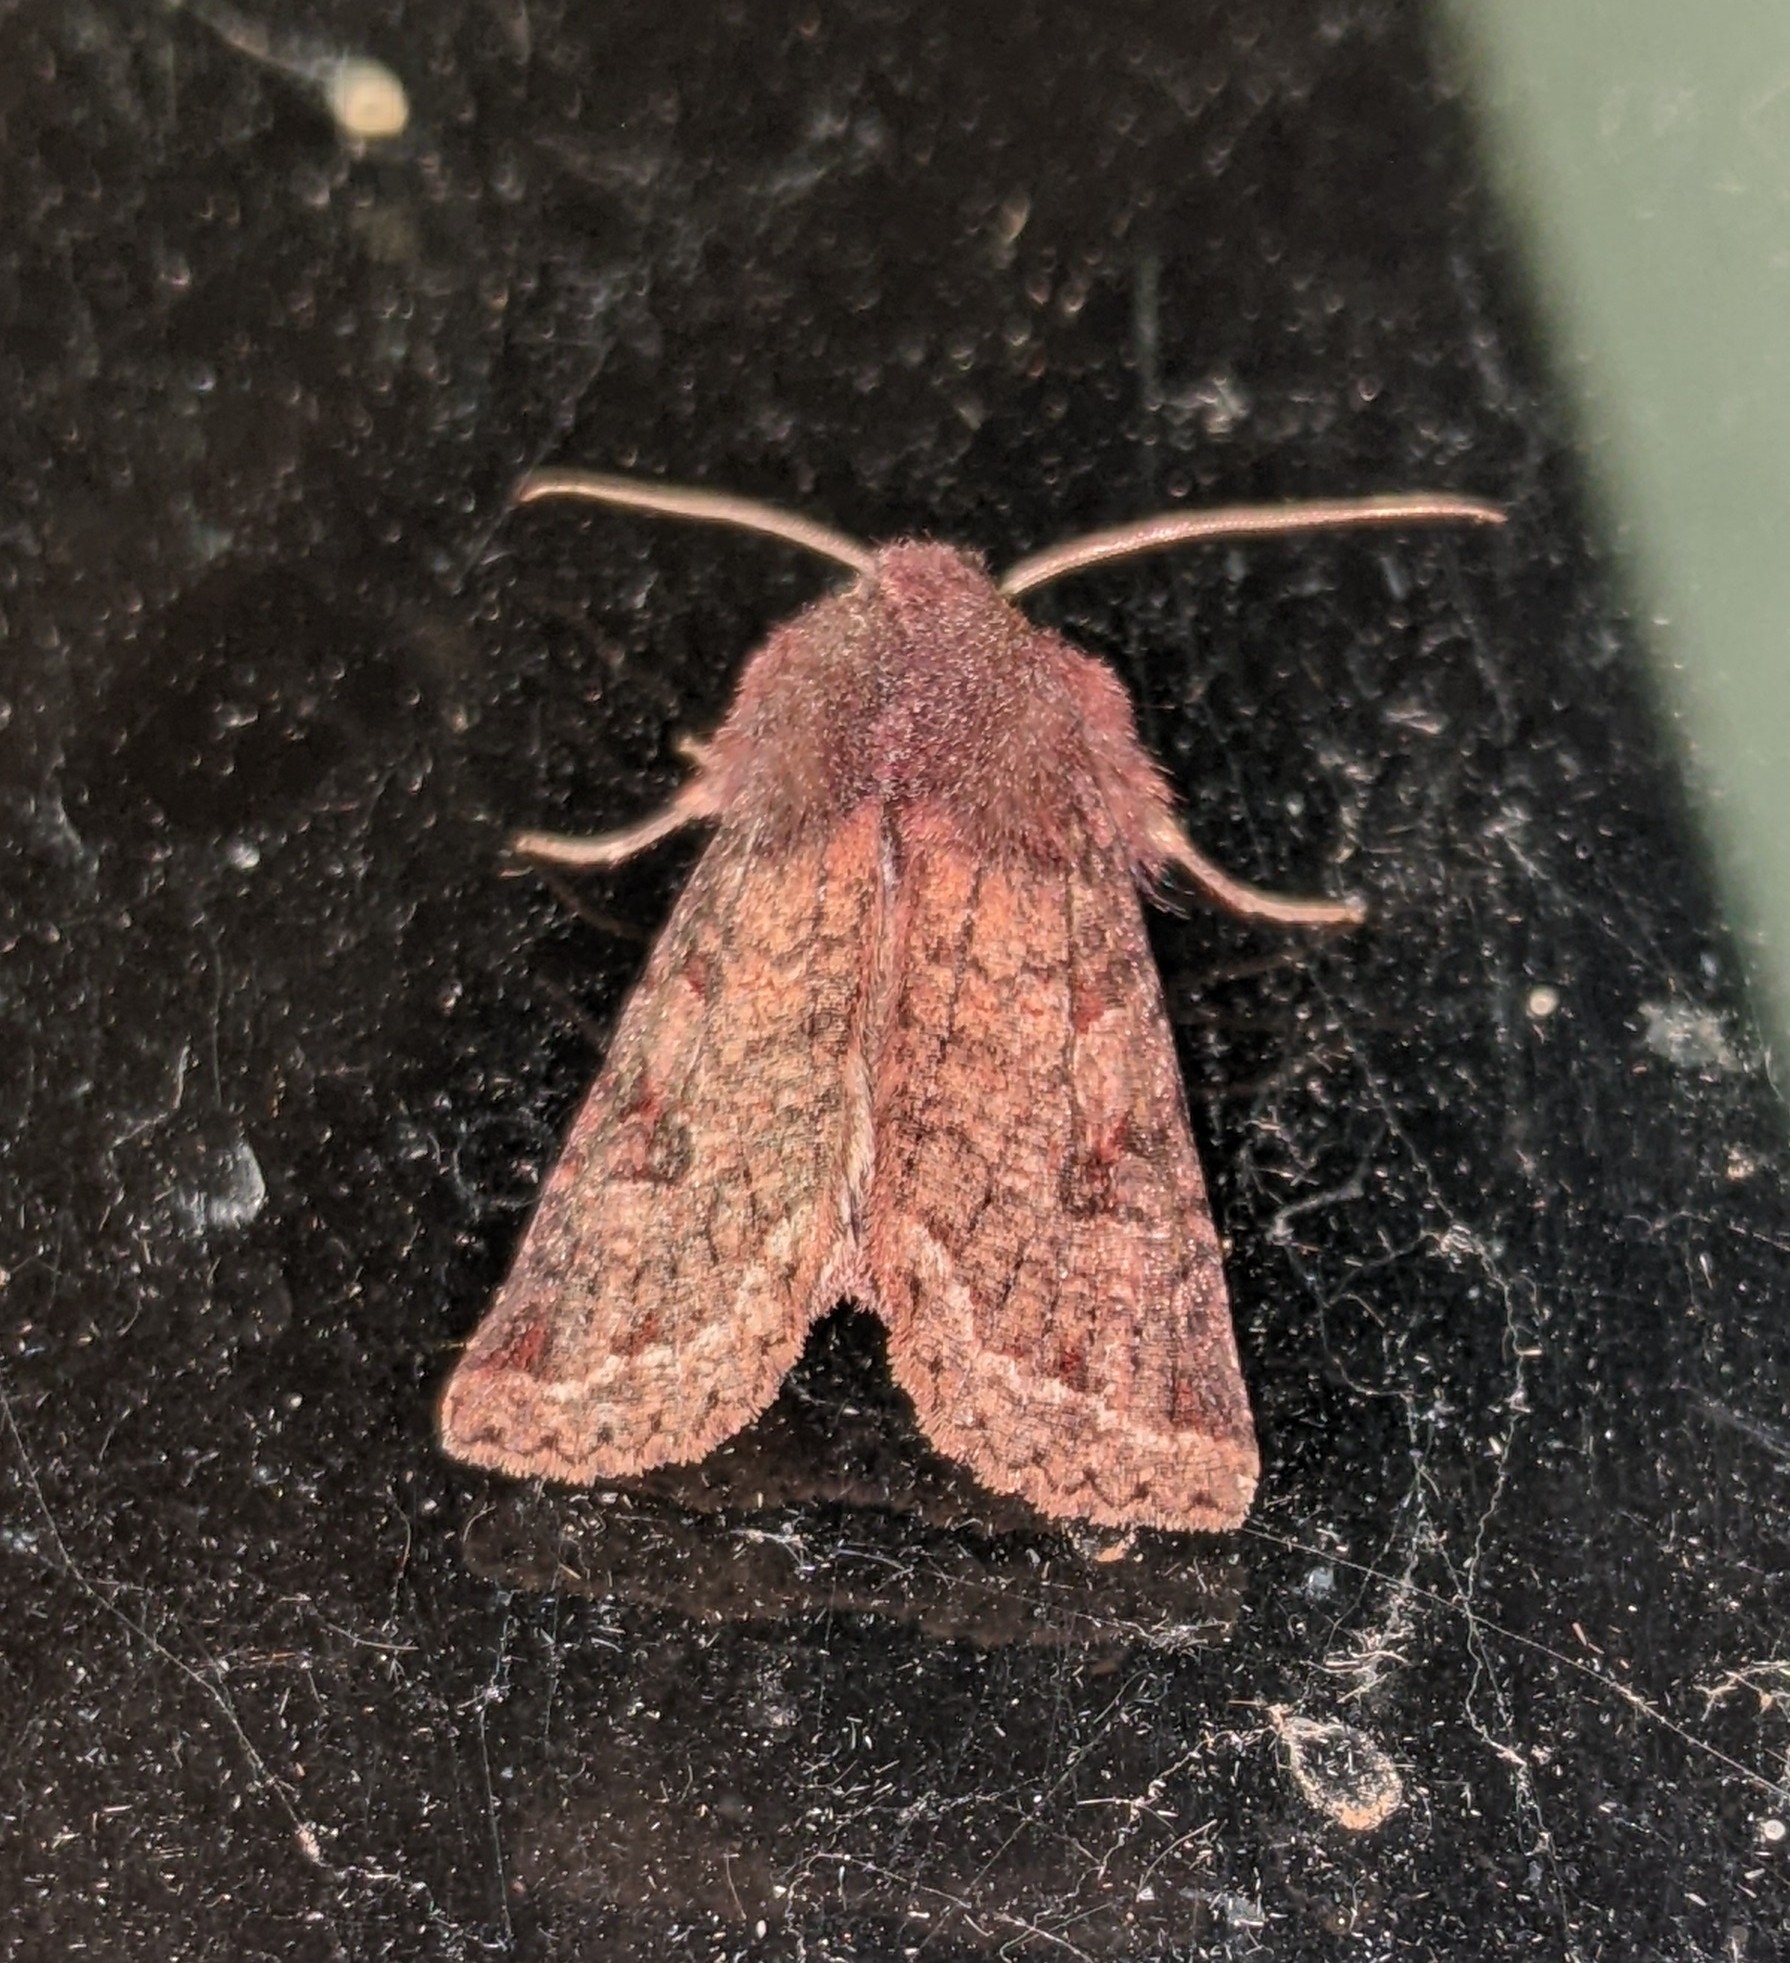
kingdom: Animalia
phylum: Arthropoda
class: Insecta
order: Lepidoptera
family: Noctuidae
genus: Orthosia
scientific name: Orthosia praeses
